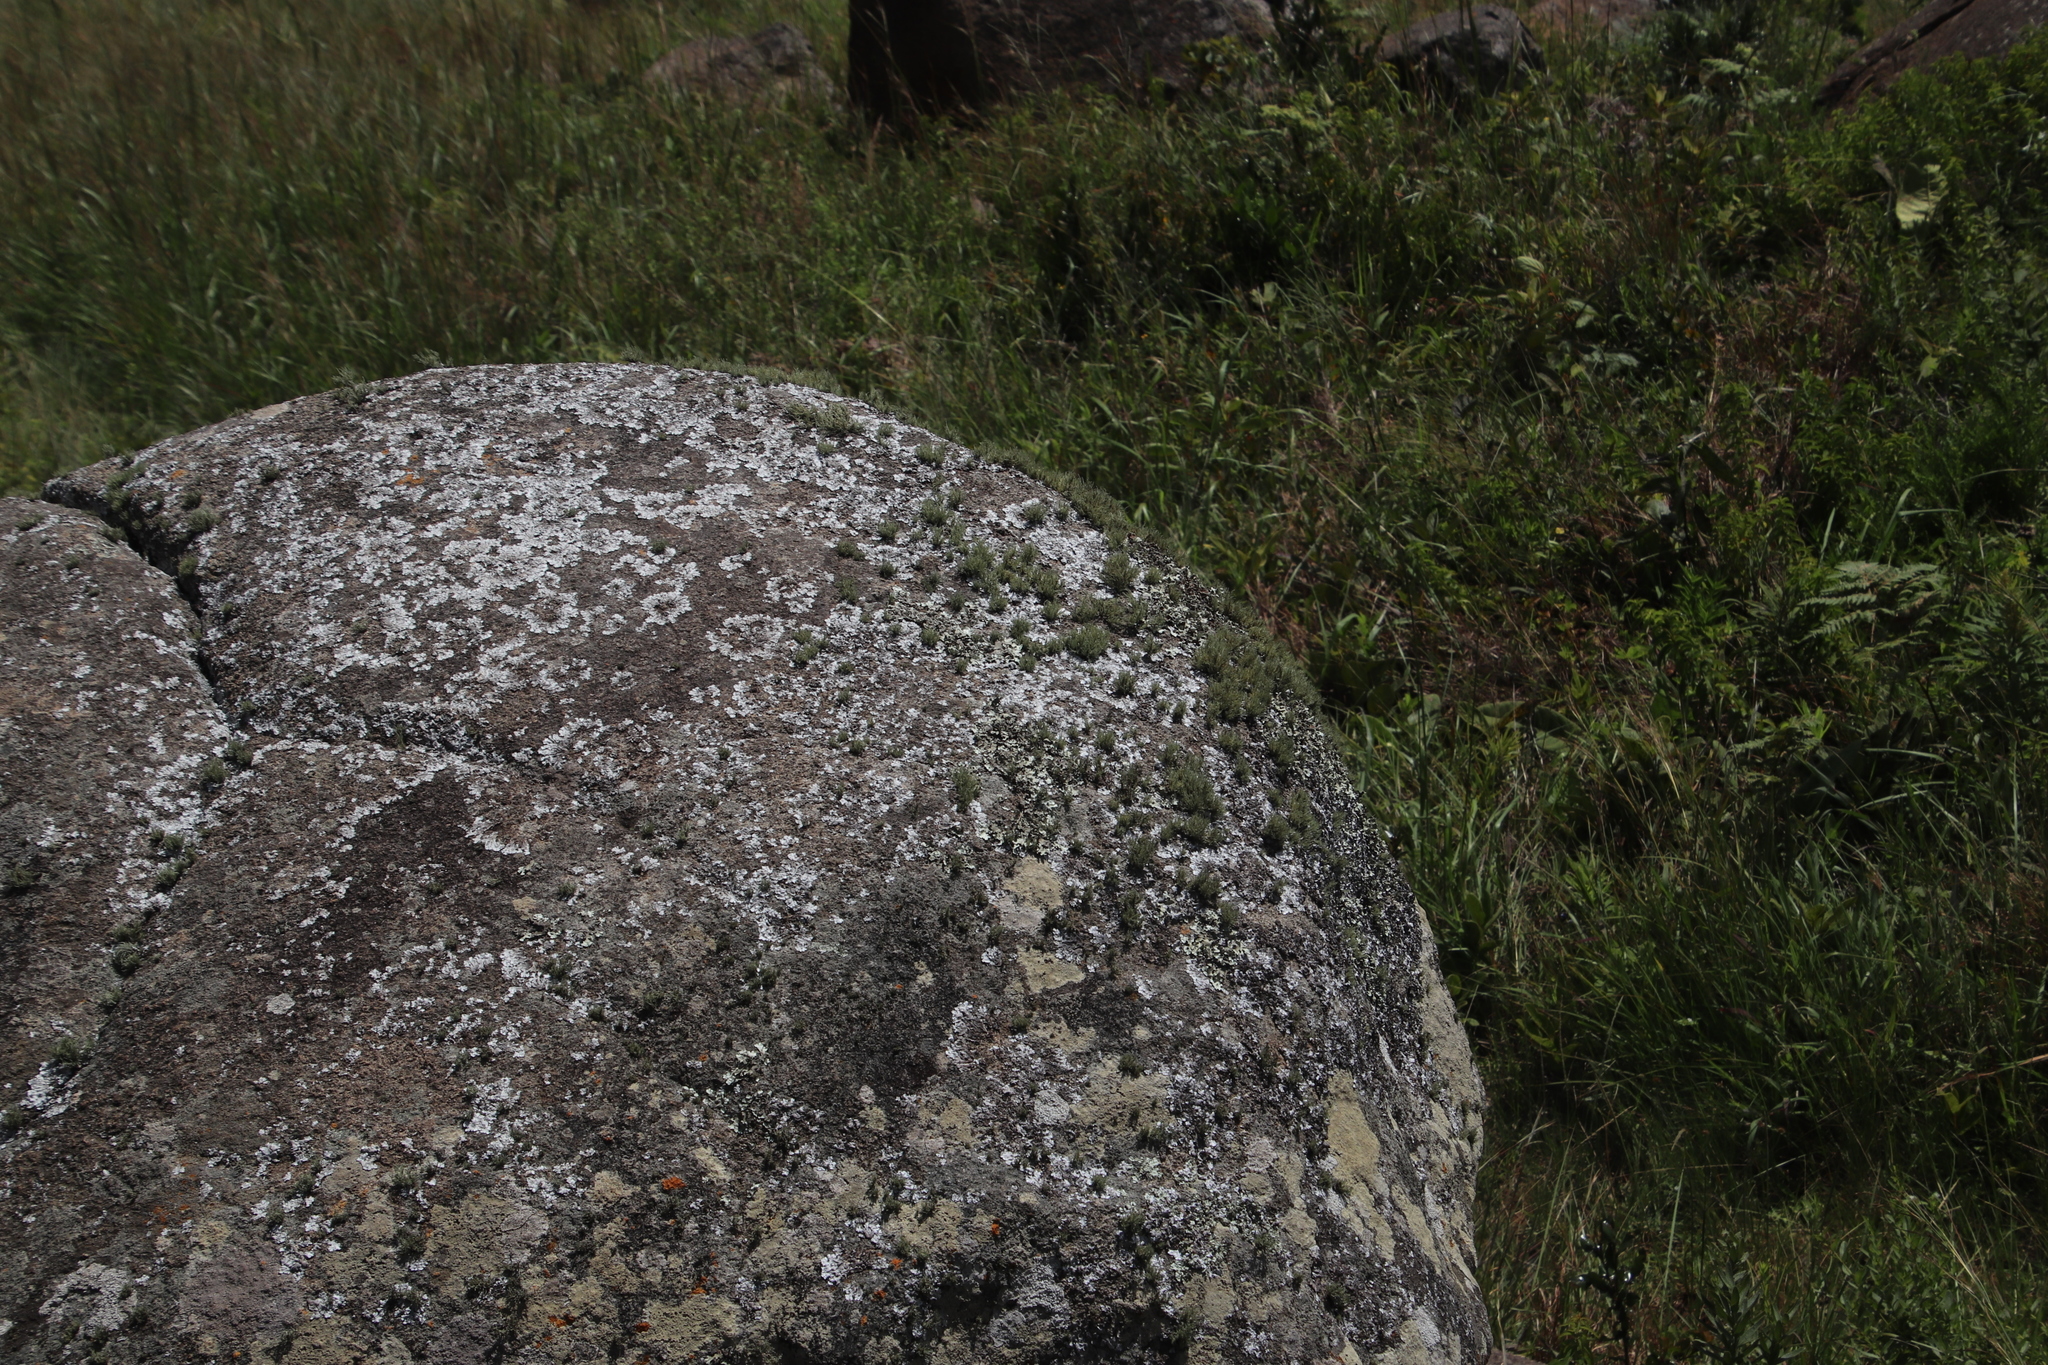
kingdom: Fungi
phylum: Ascomycota
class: Lecanoromycetes
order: Lecanorales
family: Parmeliaceae
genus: Usnea
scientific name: Usnea pulvinata
